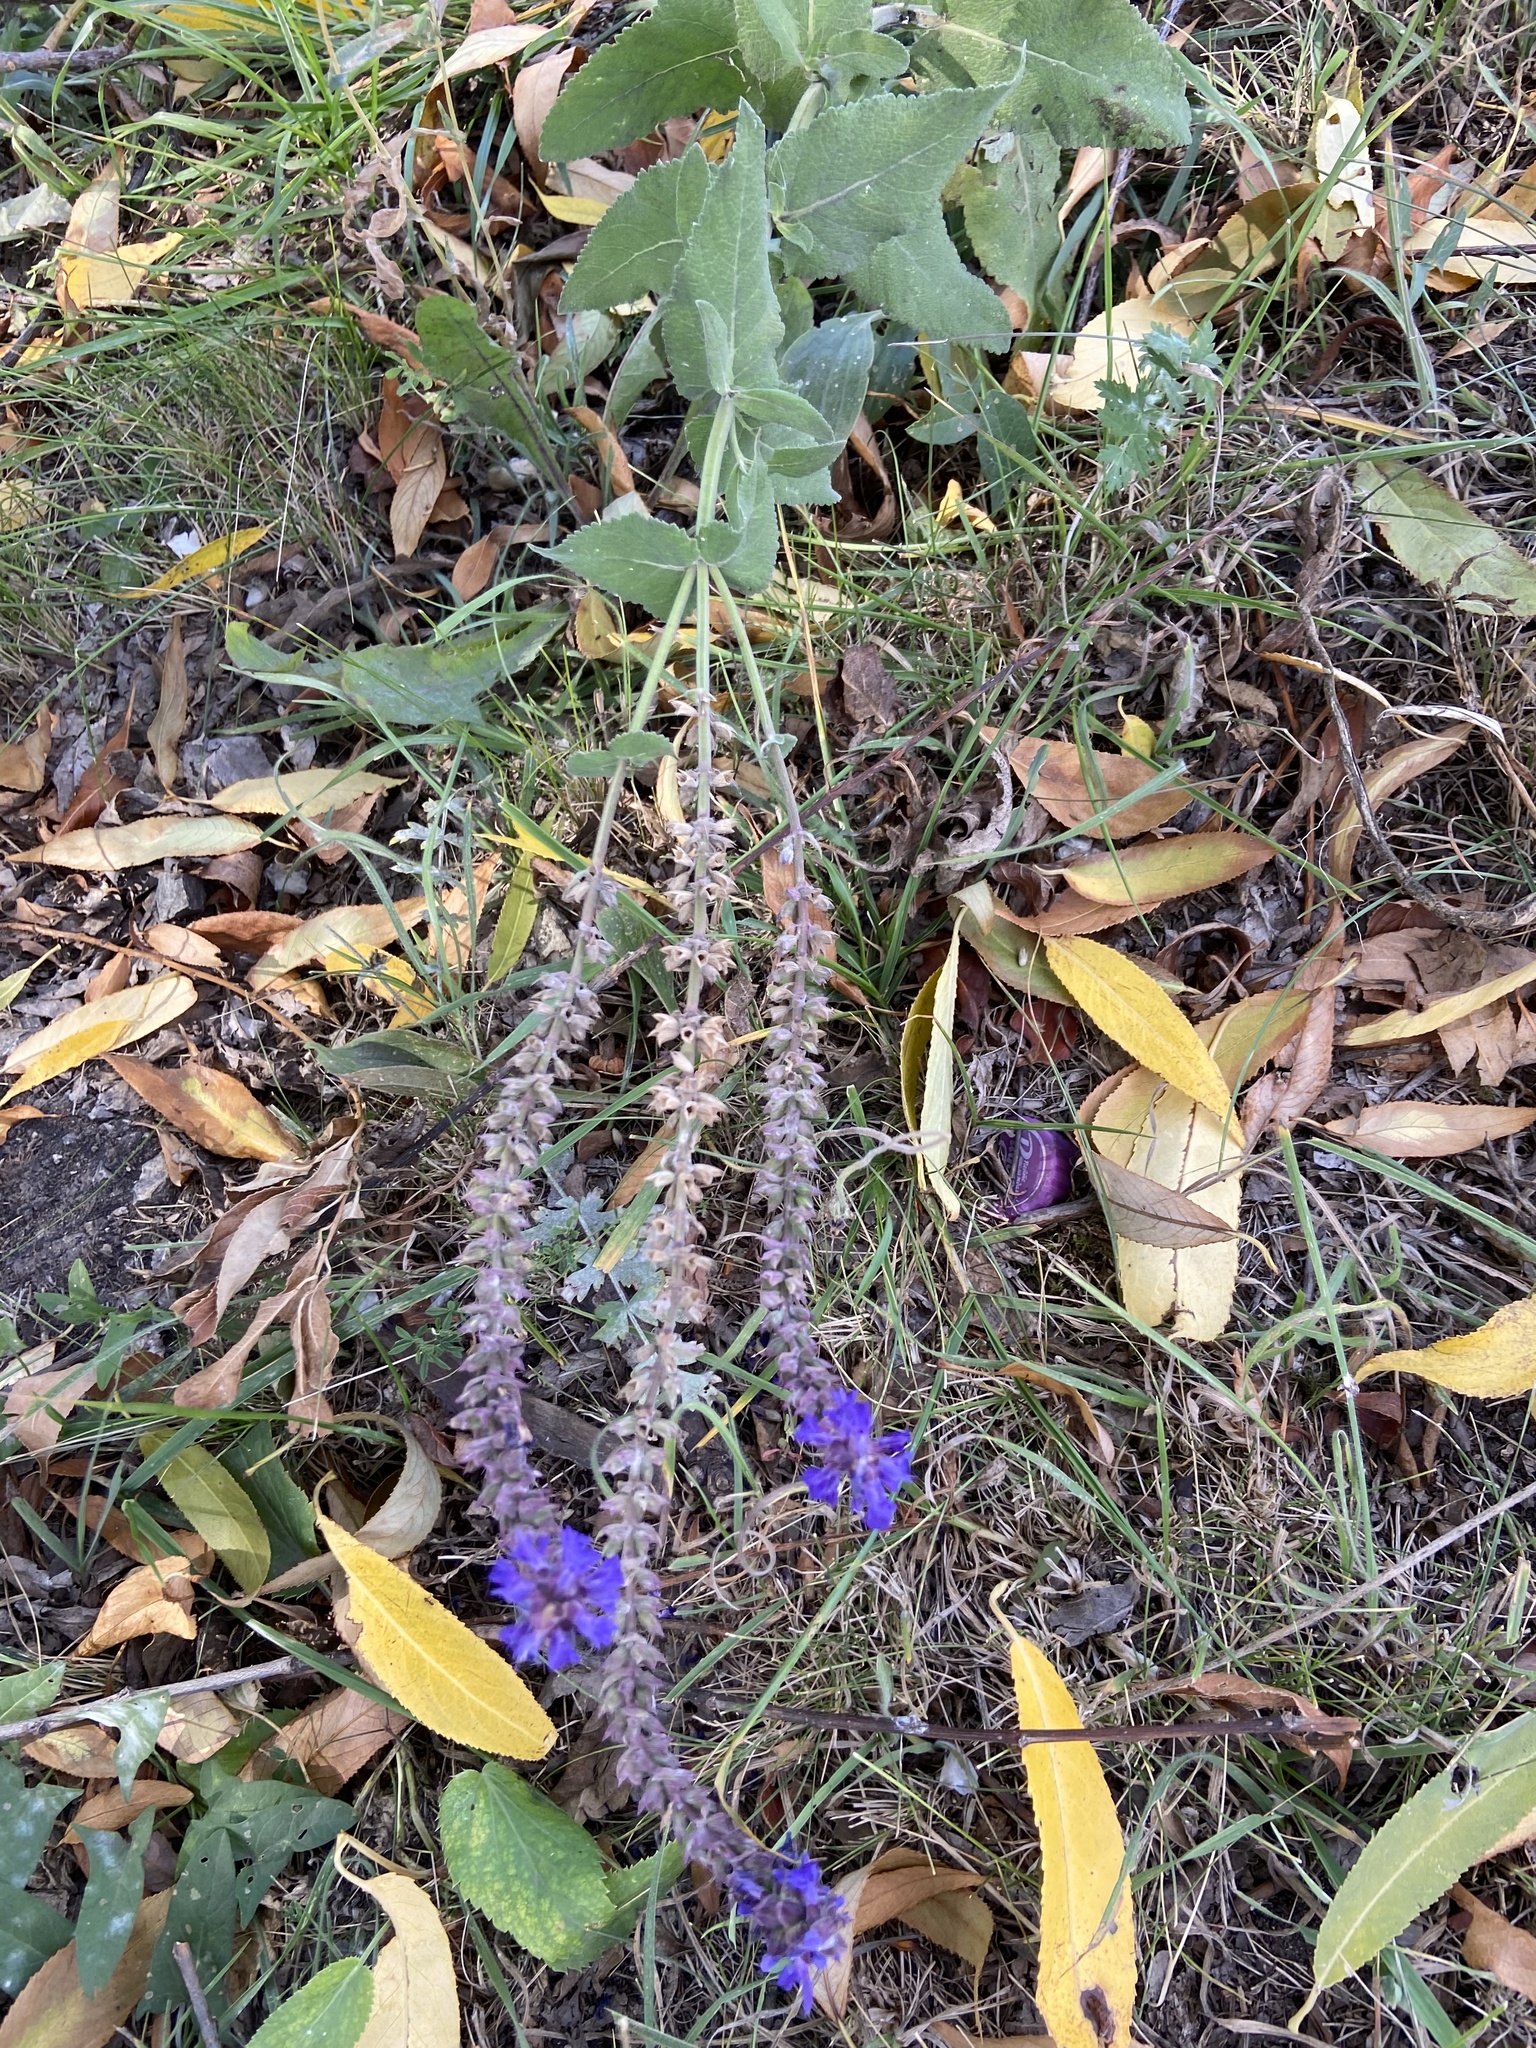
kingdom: Plantae
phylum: Tracheophyta
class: Magnoliopsida
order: Lamiales
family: Lamiaceae
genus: Salvia
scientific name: Salvia nemorosa
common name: Balkan clary
